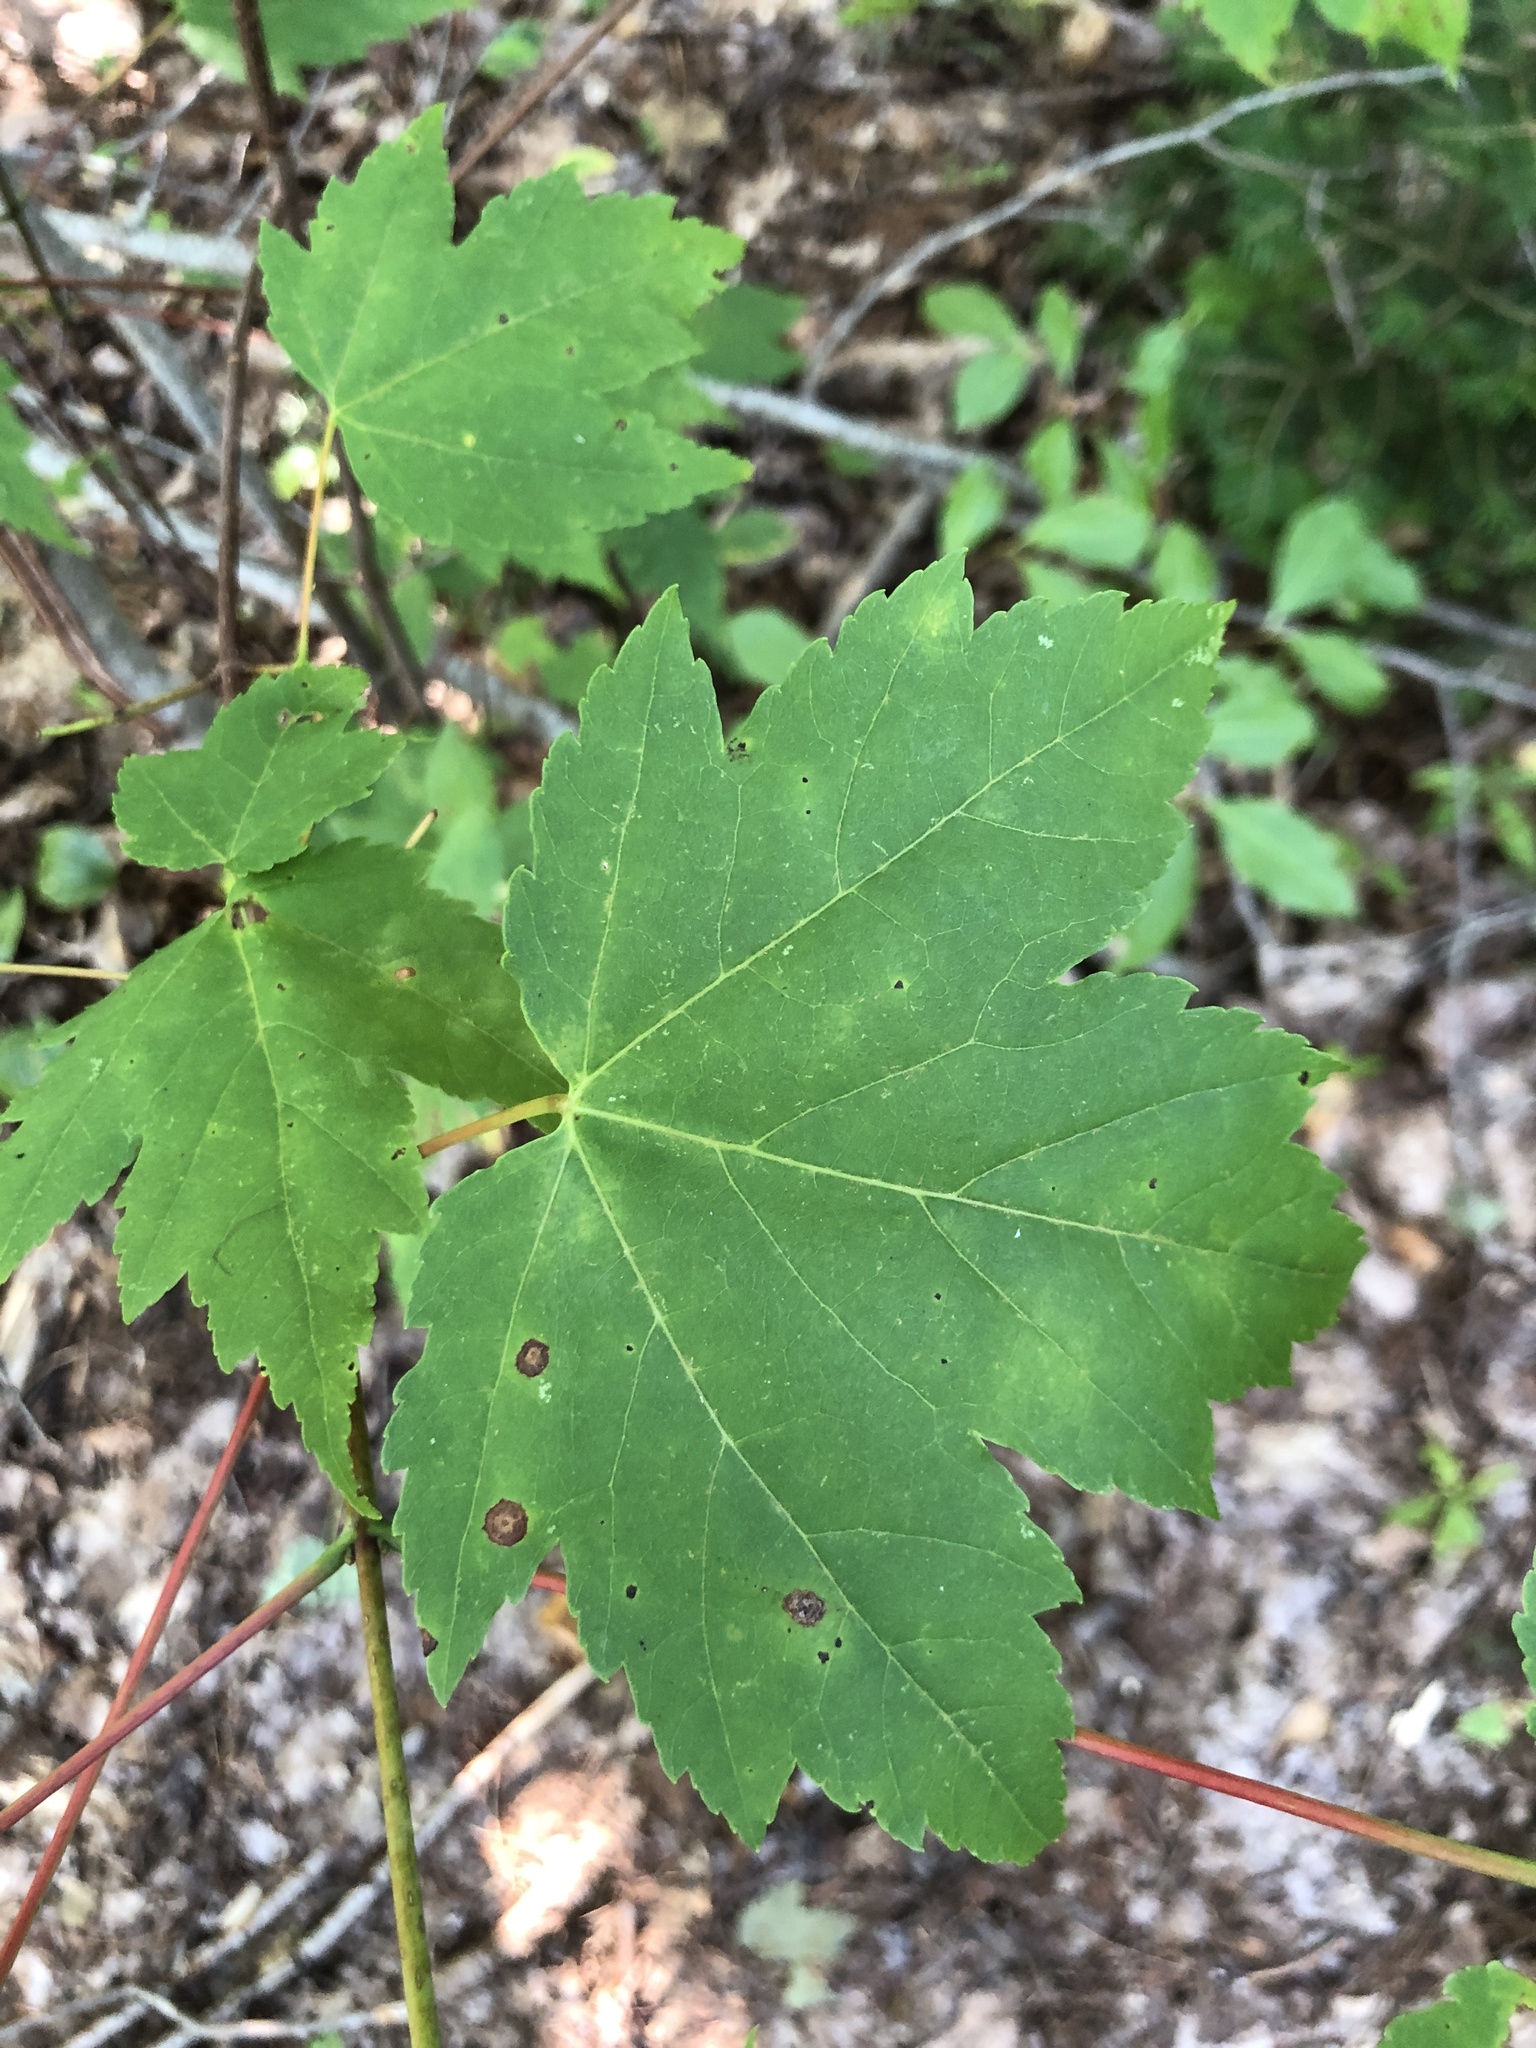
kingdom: Plantae
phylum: Tracheophyta
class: Magnoliopsida
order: Sapindales
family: Sapindaceae
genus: Acer
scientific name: Acer rubrum
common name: Red maple
